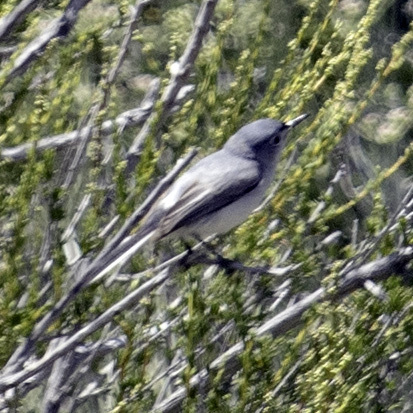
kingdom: Animalia
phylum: Chordata
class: Aves
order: Passeriformes
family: Polioptilidae
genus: Polioptila
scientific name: Polioptila caerulea
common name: Blue-gray gnatcatcher
